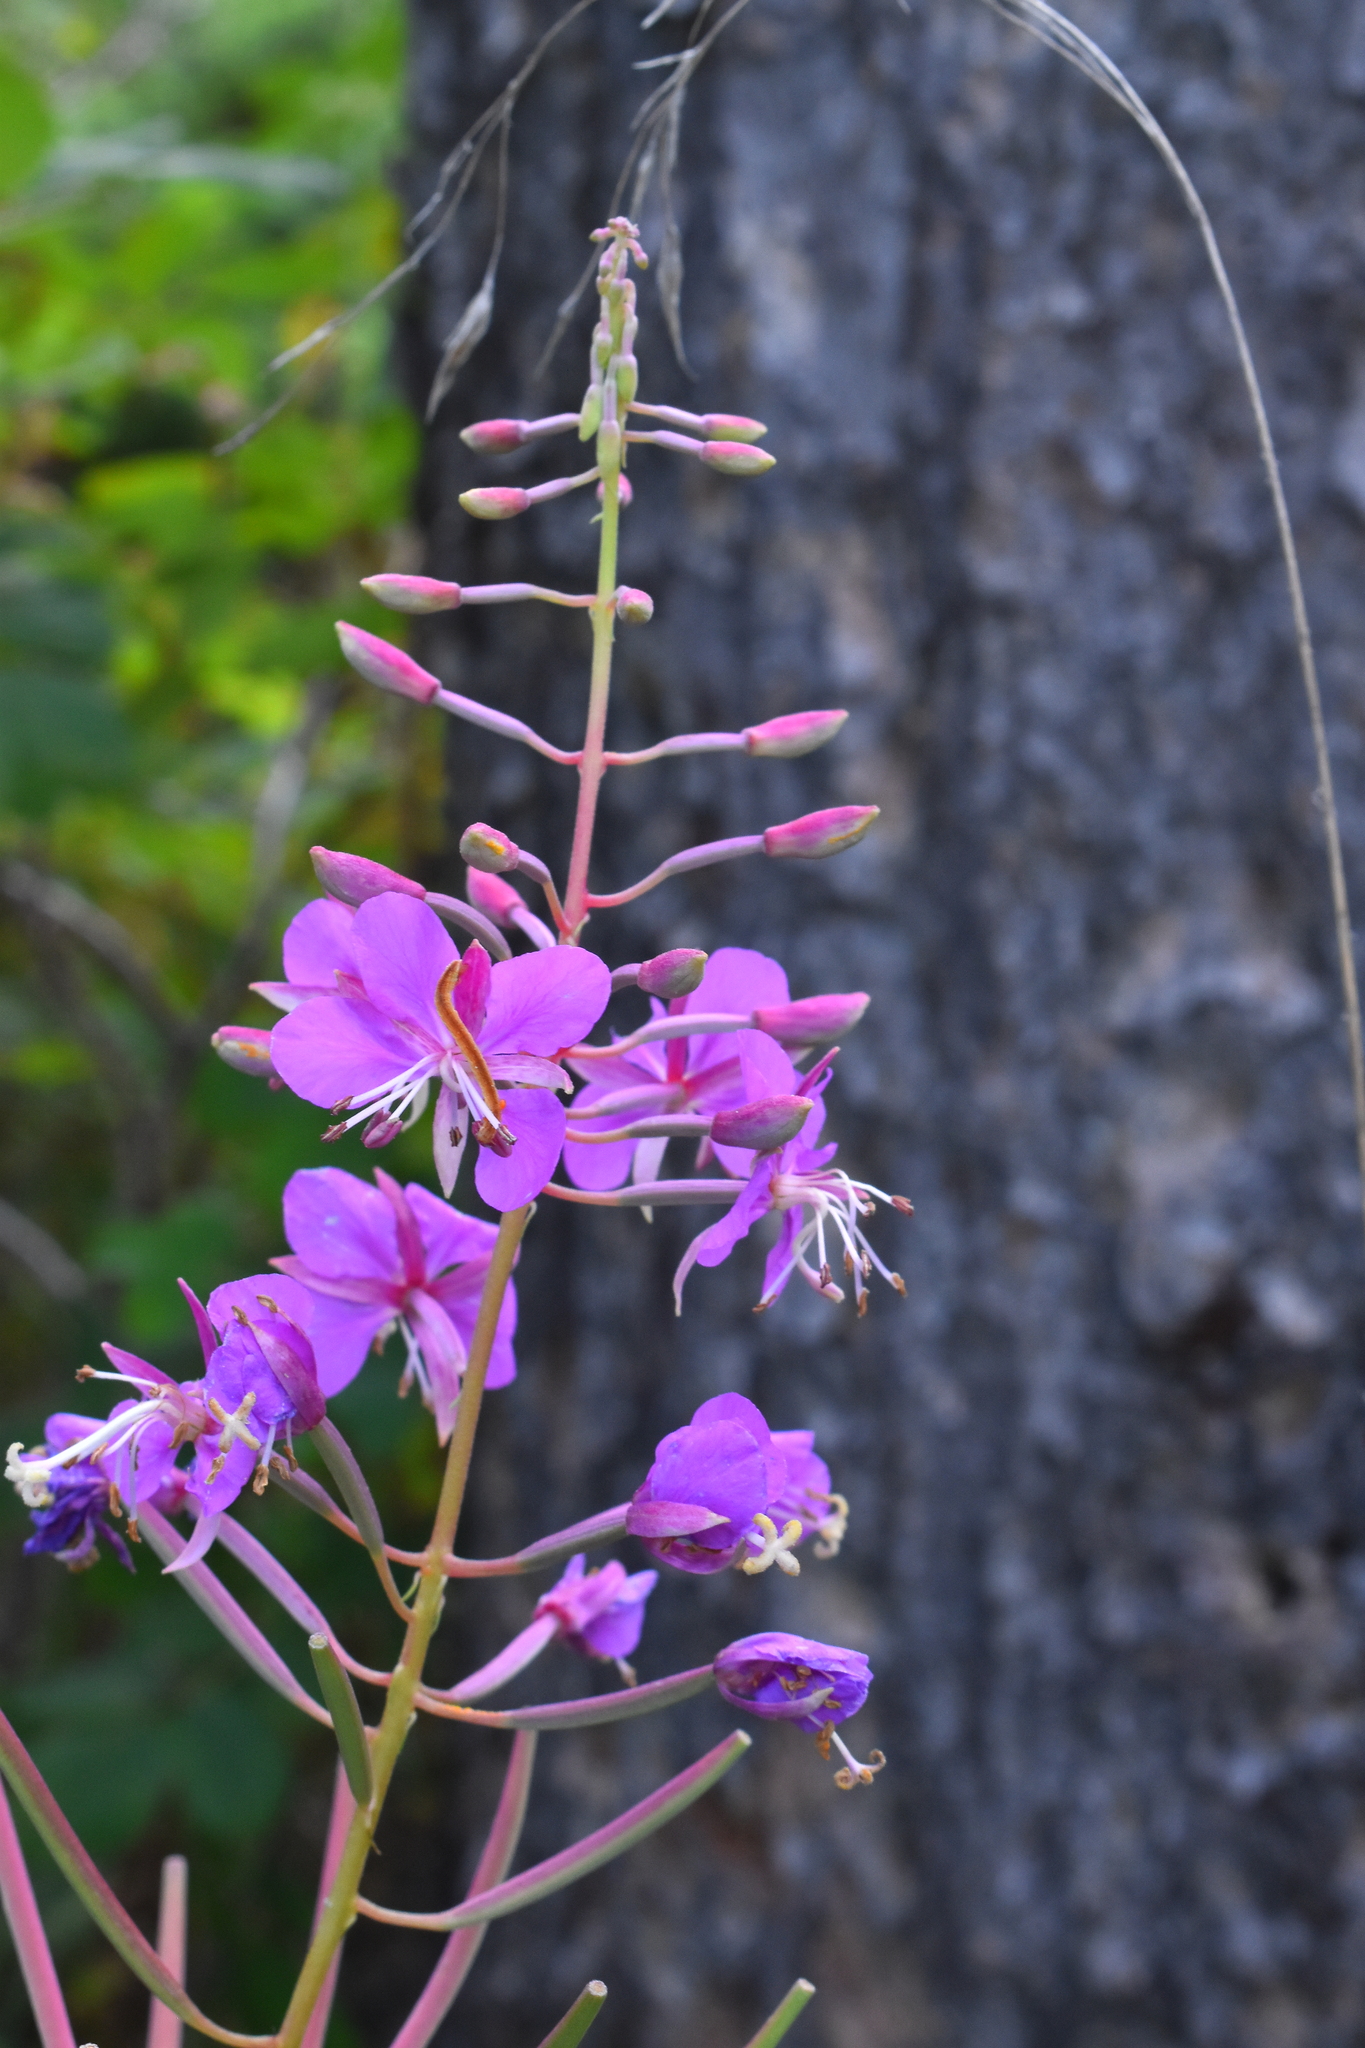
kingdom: Plantae
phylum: Tracheophyta
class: Magnoliopsida
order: Myrtales
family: Onagraceae
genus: Chamaenerion
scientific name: Chamaenerion angustifolium
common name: Fireweed
